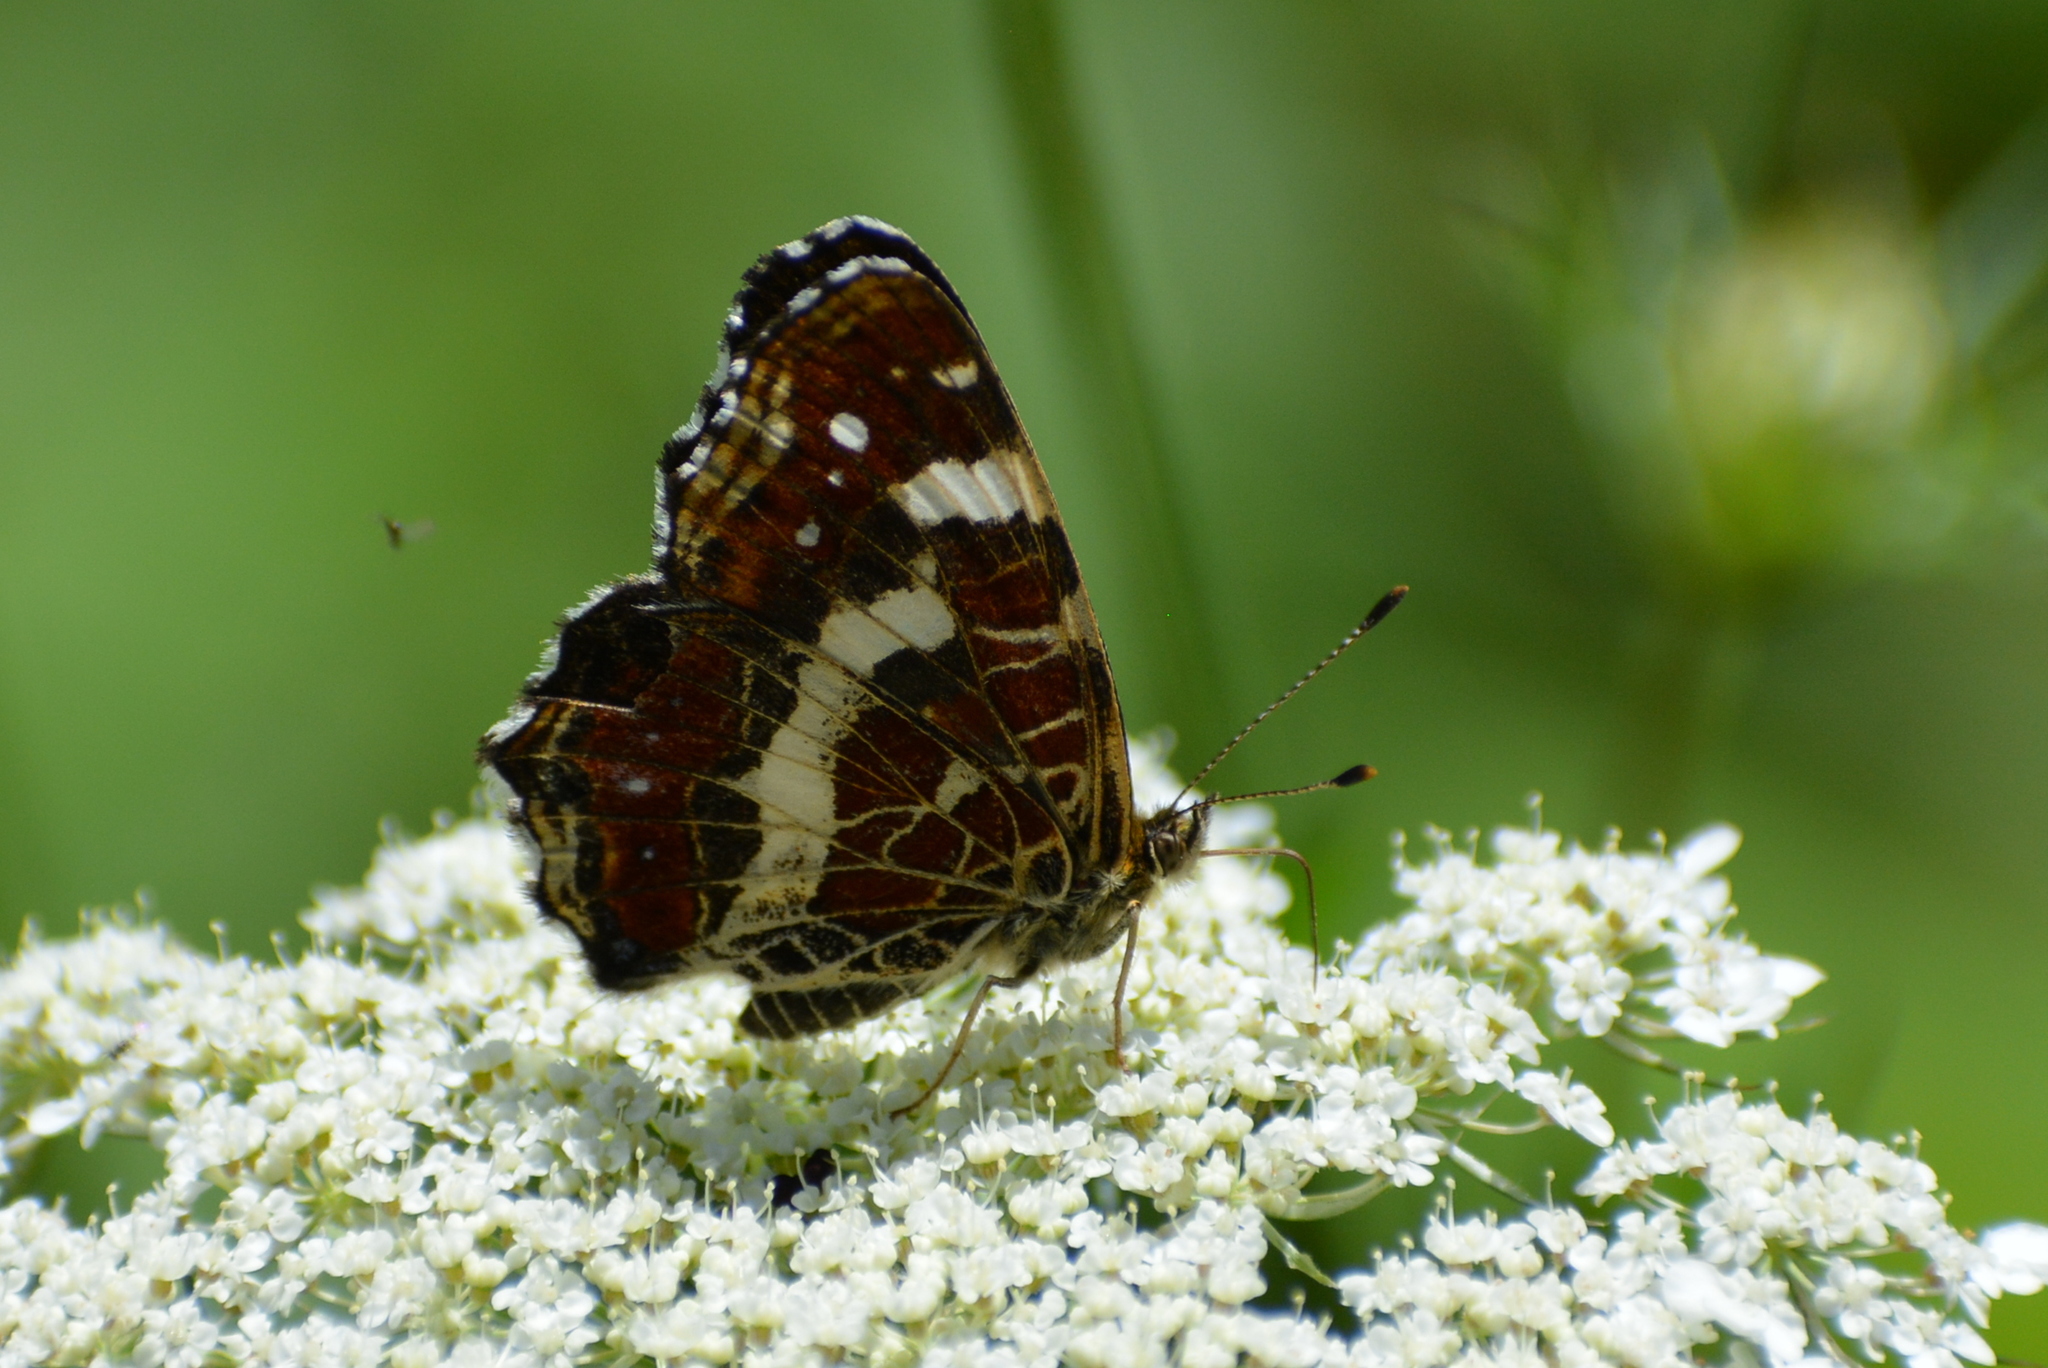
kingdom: Animalia
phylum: Arthropoda
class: Insecta
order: Lepidoptera
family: Nymphalidae
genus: Araschnia
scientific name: Araschnia levana
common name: Map butterfly
